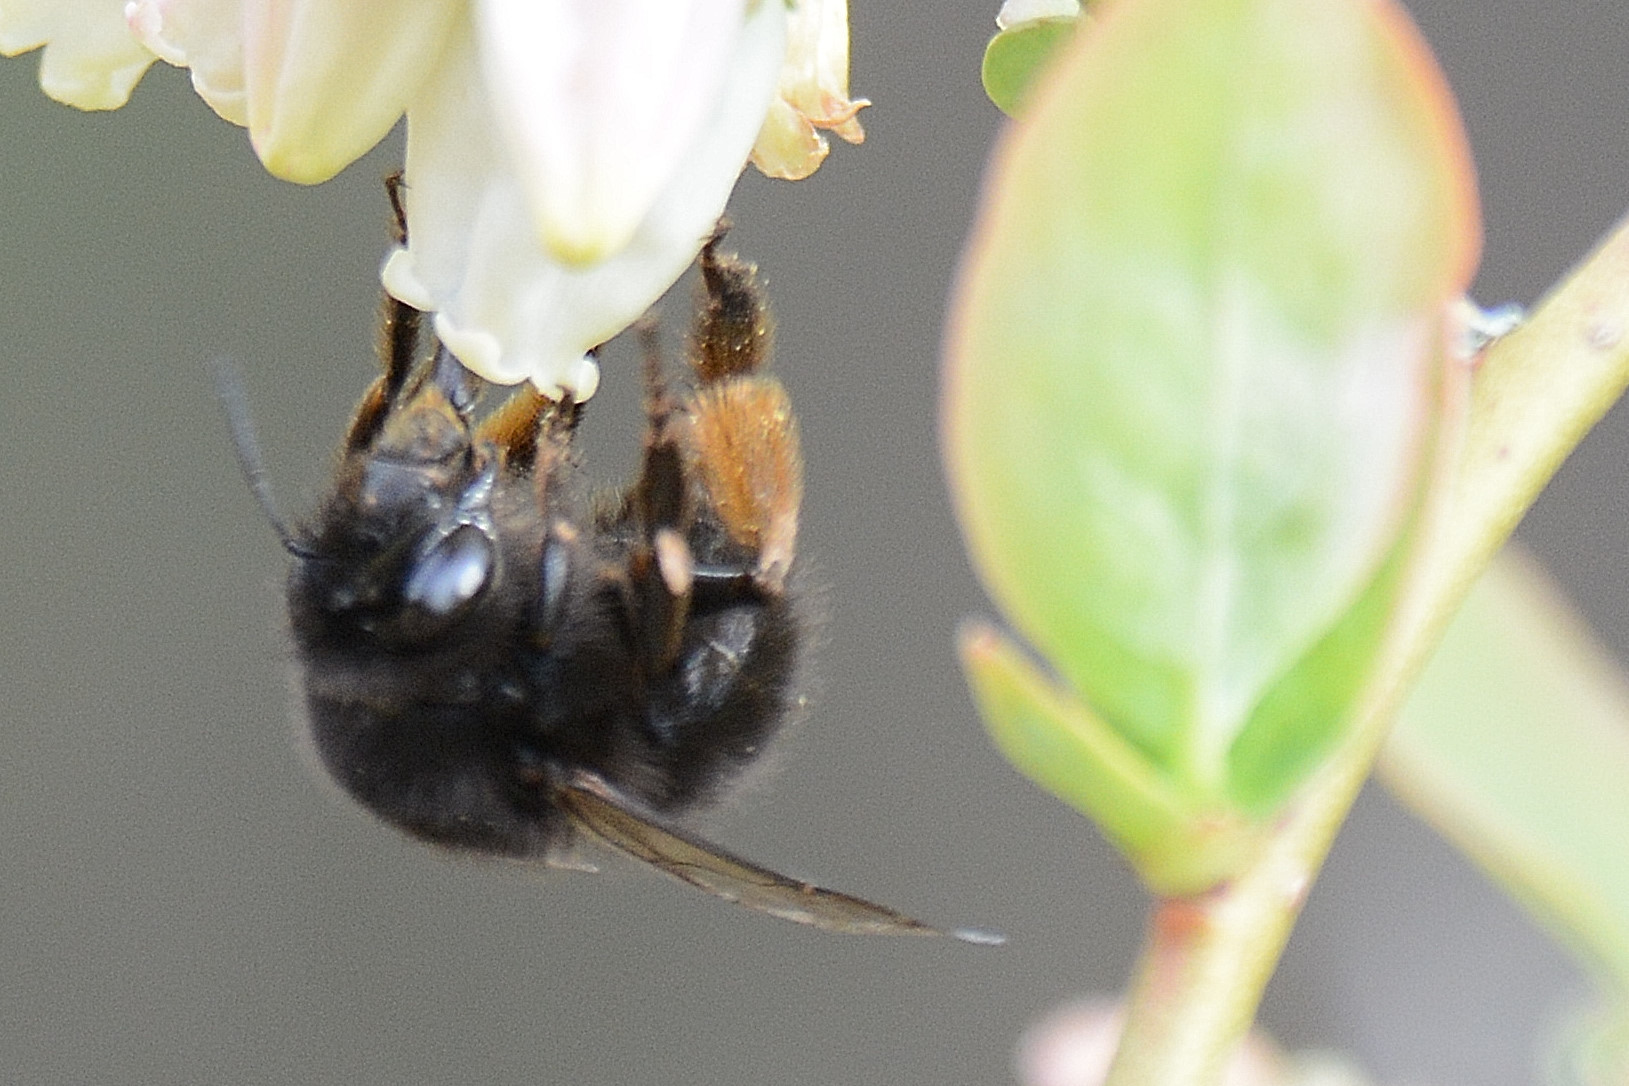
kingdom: Animalia
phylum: Arthropoda
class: Insecta
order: Hymenoptera
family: Apidae
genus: Anthophora
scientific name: Anthophora plumipes
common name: Hairy-footed flower bee
